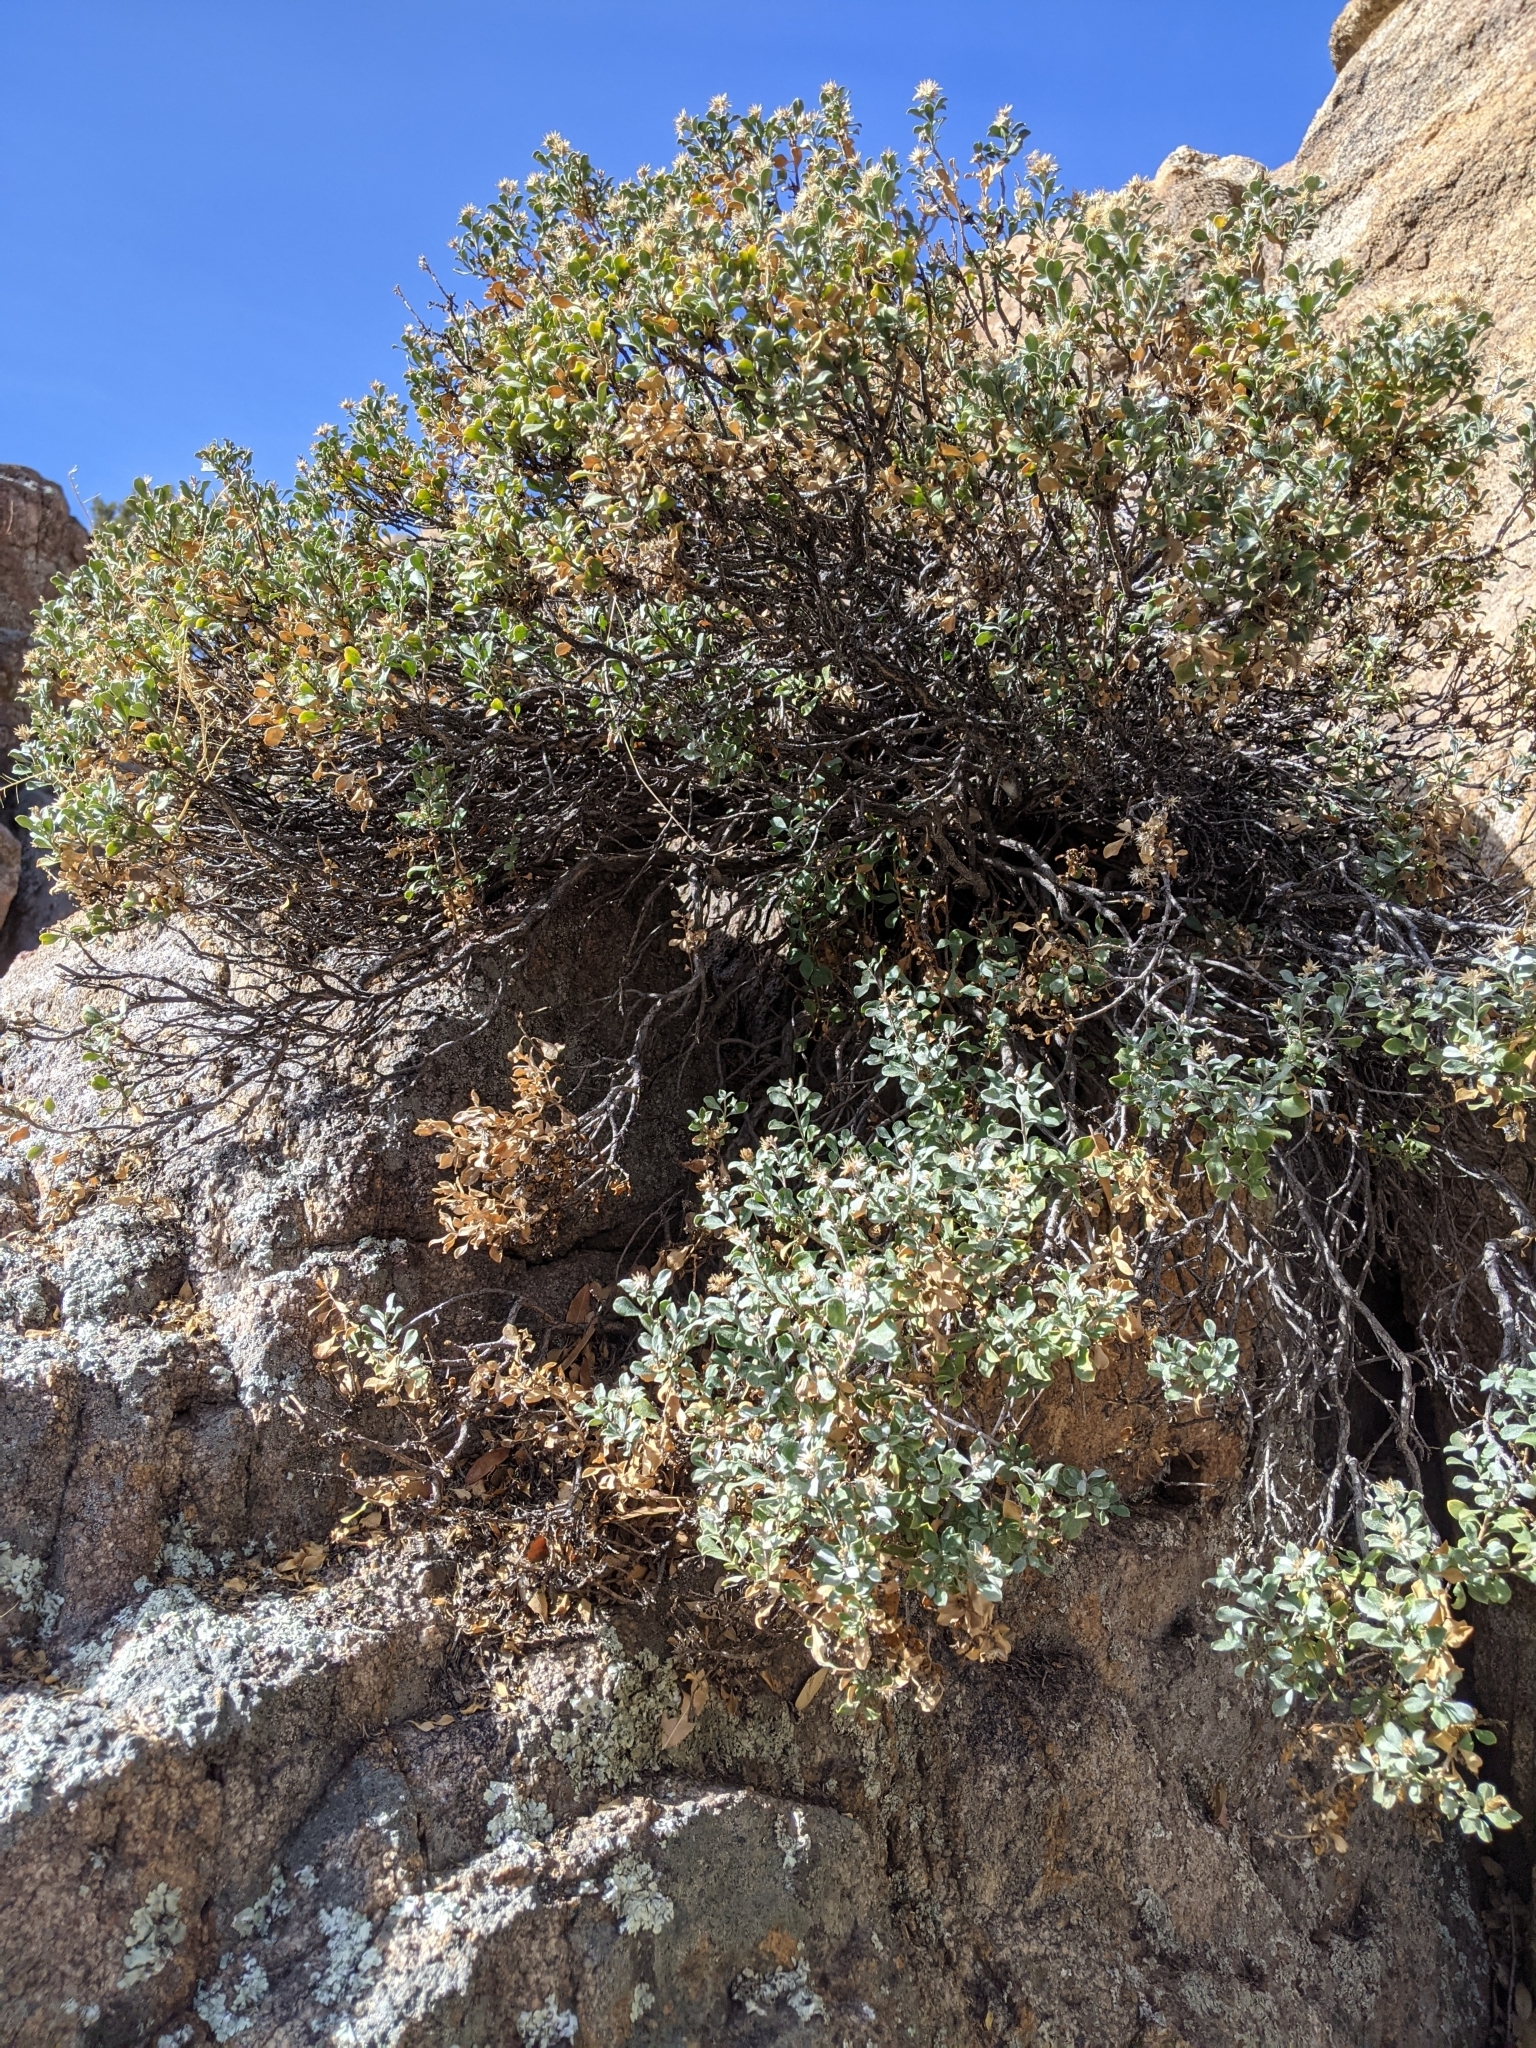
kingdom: Plantae
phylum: Tracheophyta
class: Magnoliopsida
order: Asterales
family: Asteraceae
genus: Ericameria
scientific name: Ericameria cuneata
